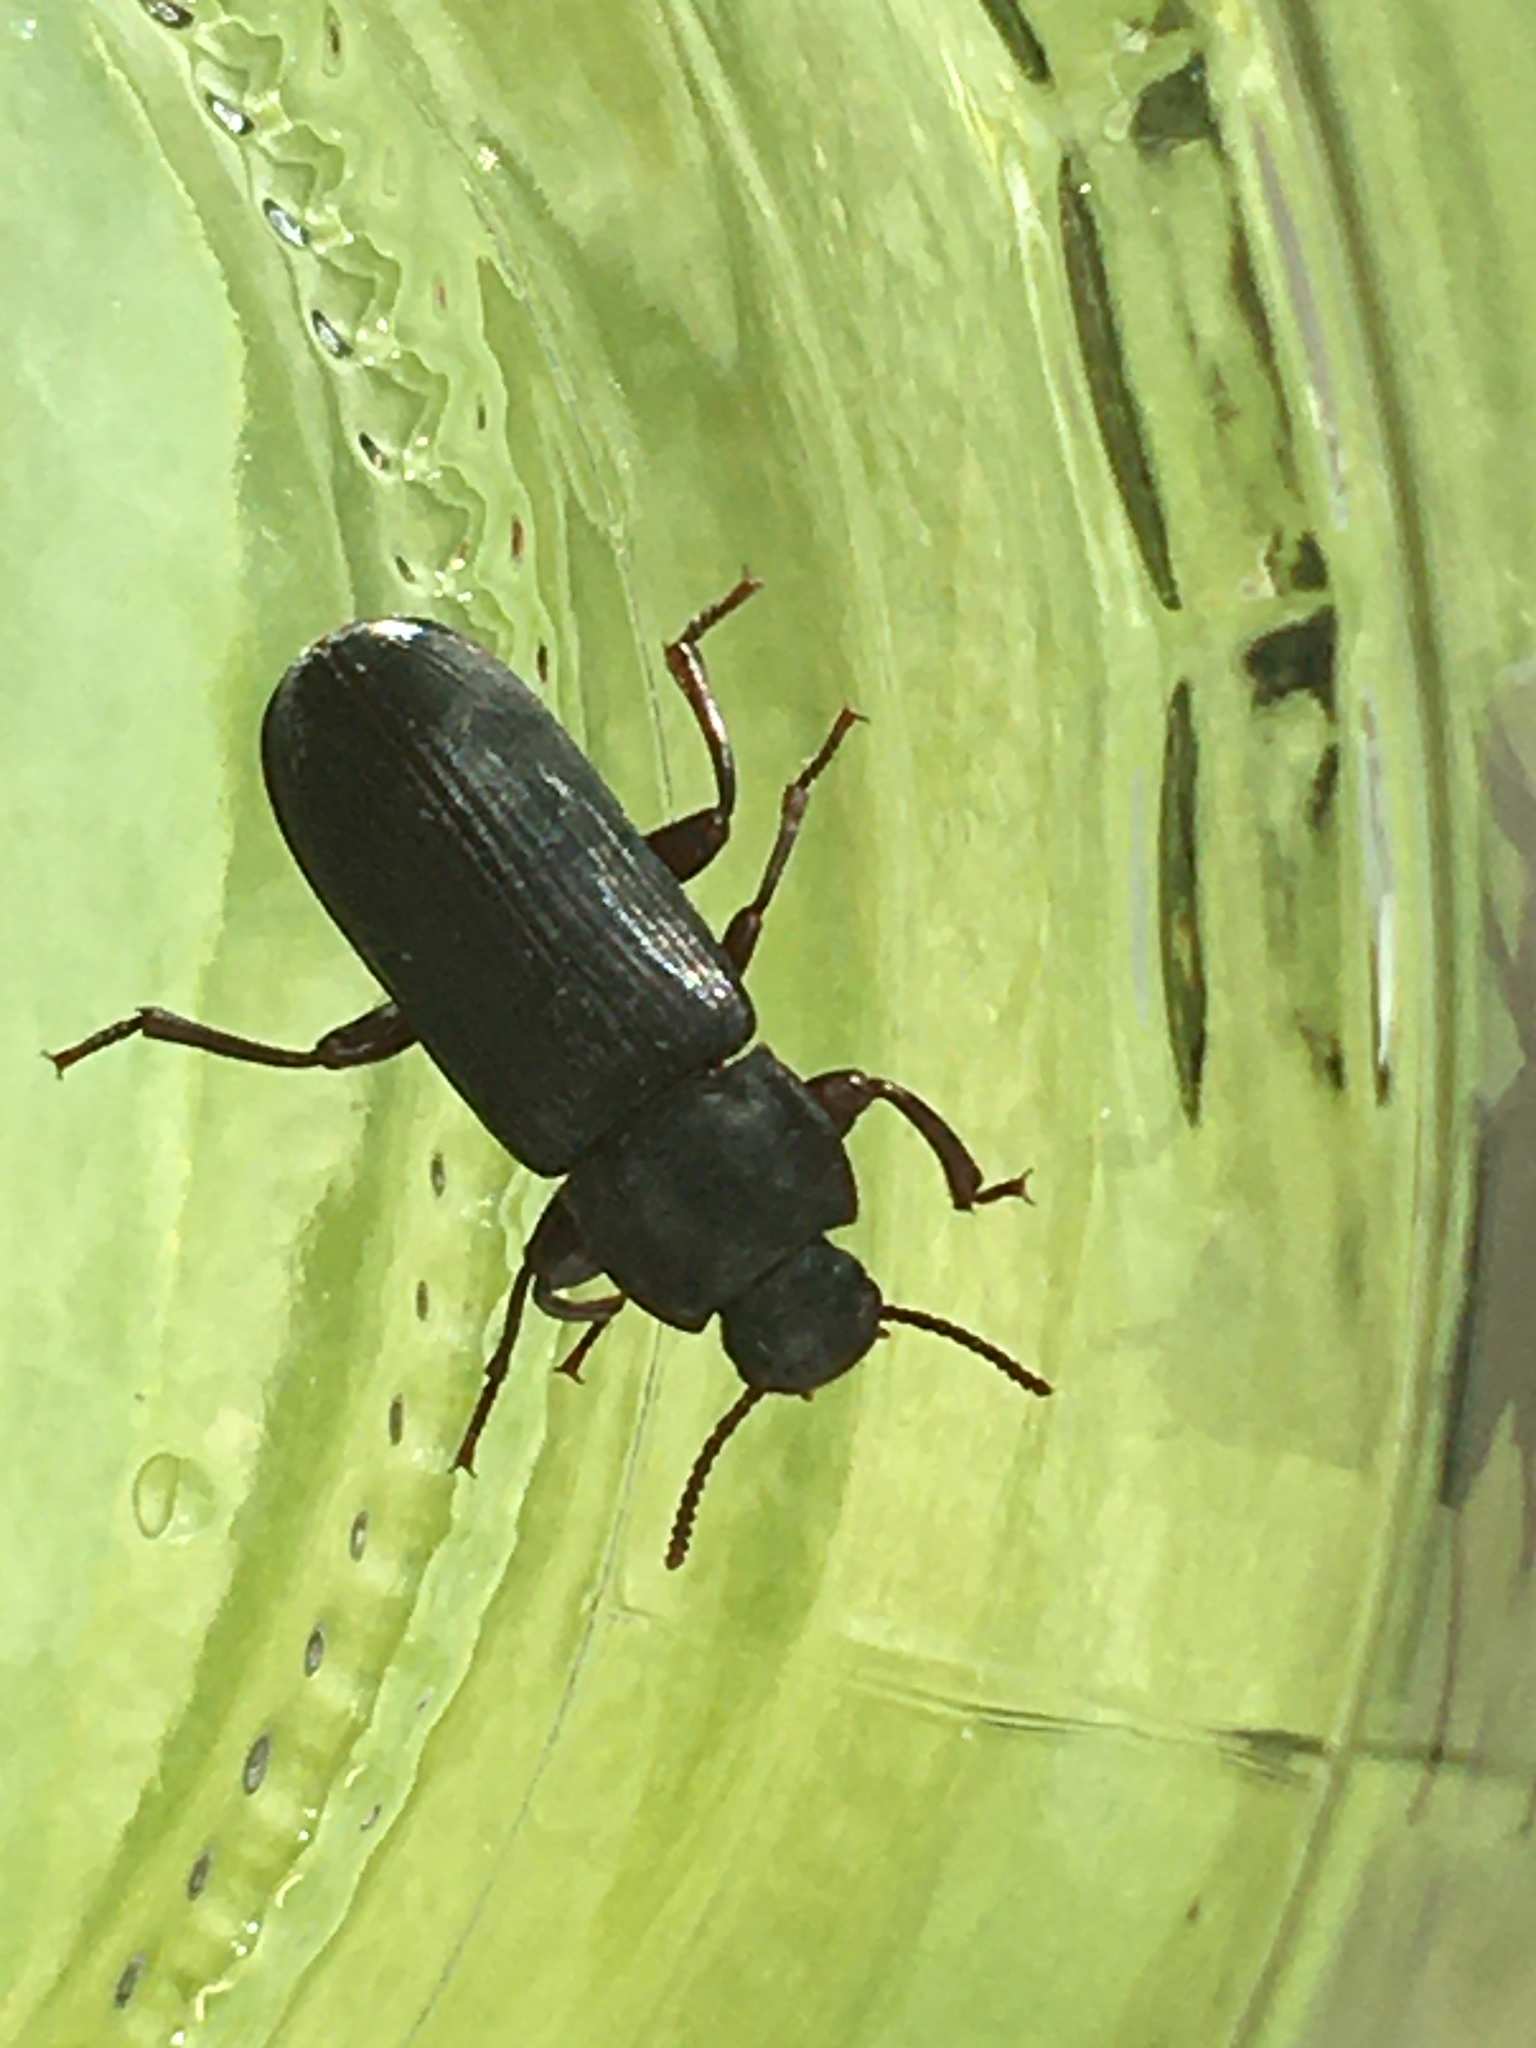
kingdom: Animalia
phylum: Arthropoda
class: Insecta
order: Coleoptera
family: Tenebrionidae
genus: Tenebrio
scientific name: Tenebrio molitor
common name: Hardback beetle
